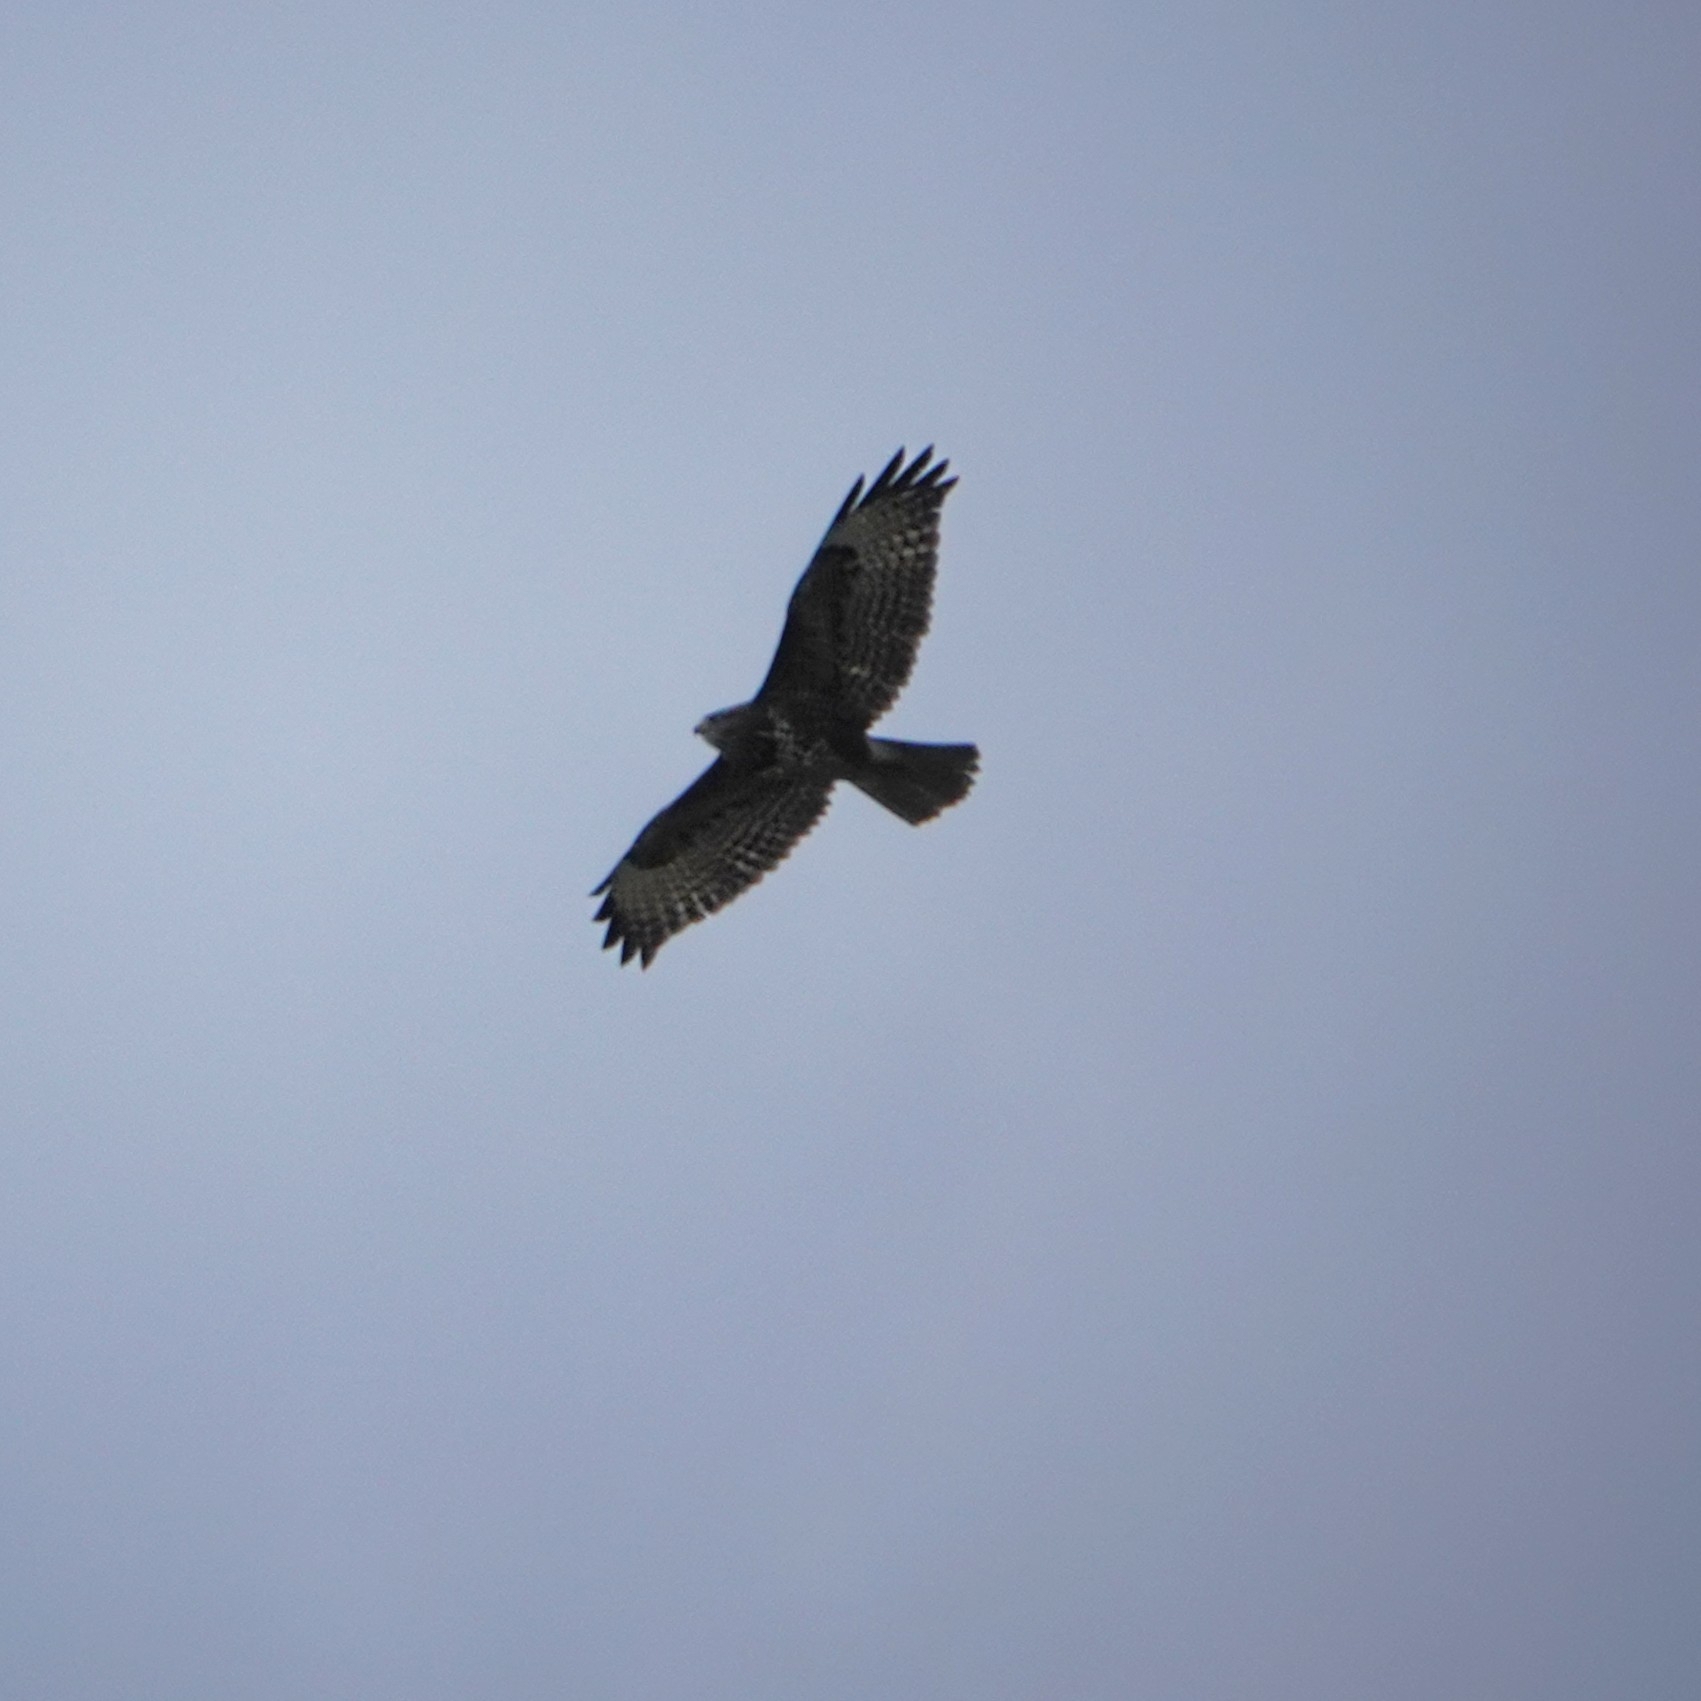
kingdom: Animalia
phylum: Chordata
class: Aves
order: Accipitriformes
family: Accipitridae
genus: Buteo
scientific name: Buteo buteo
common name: Common buzzard
